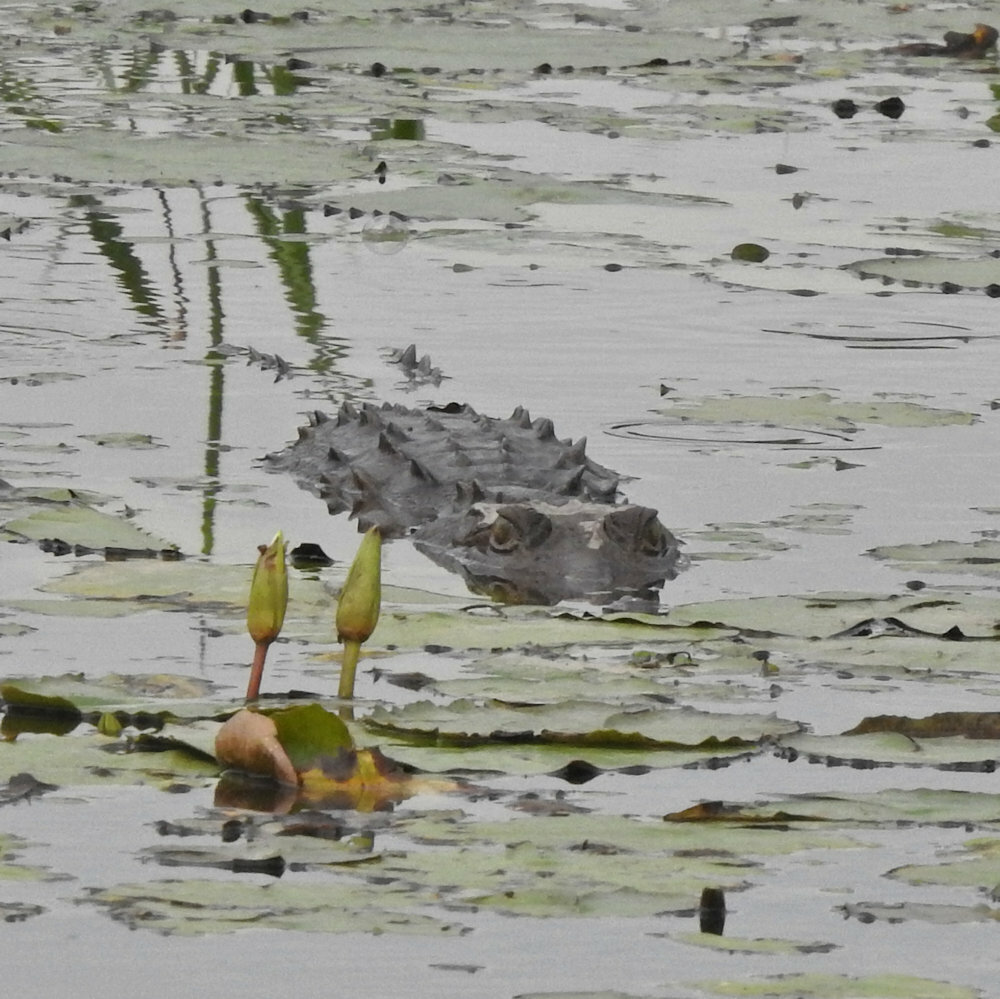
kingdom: Animalia
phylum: Chordata
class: Crocodylia
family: Crocodylidae
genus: Crocodylus
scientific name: Crocodylus acutus
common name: American crocodile
